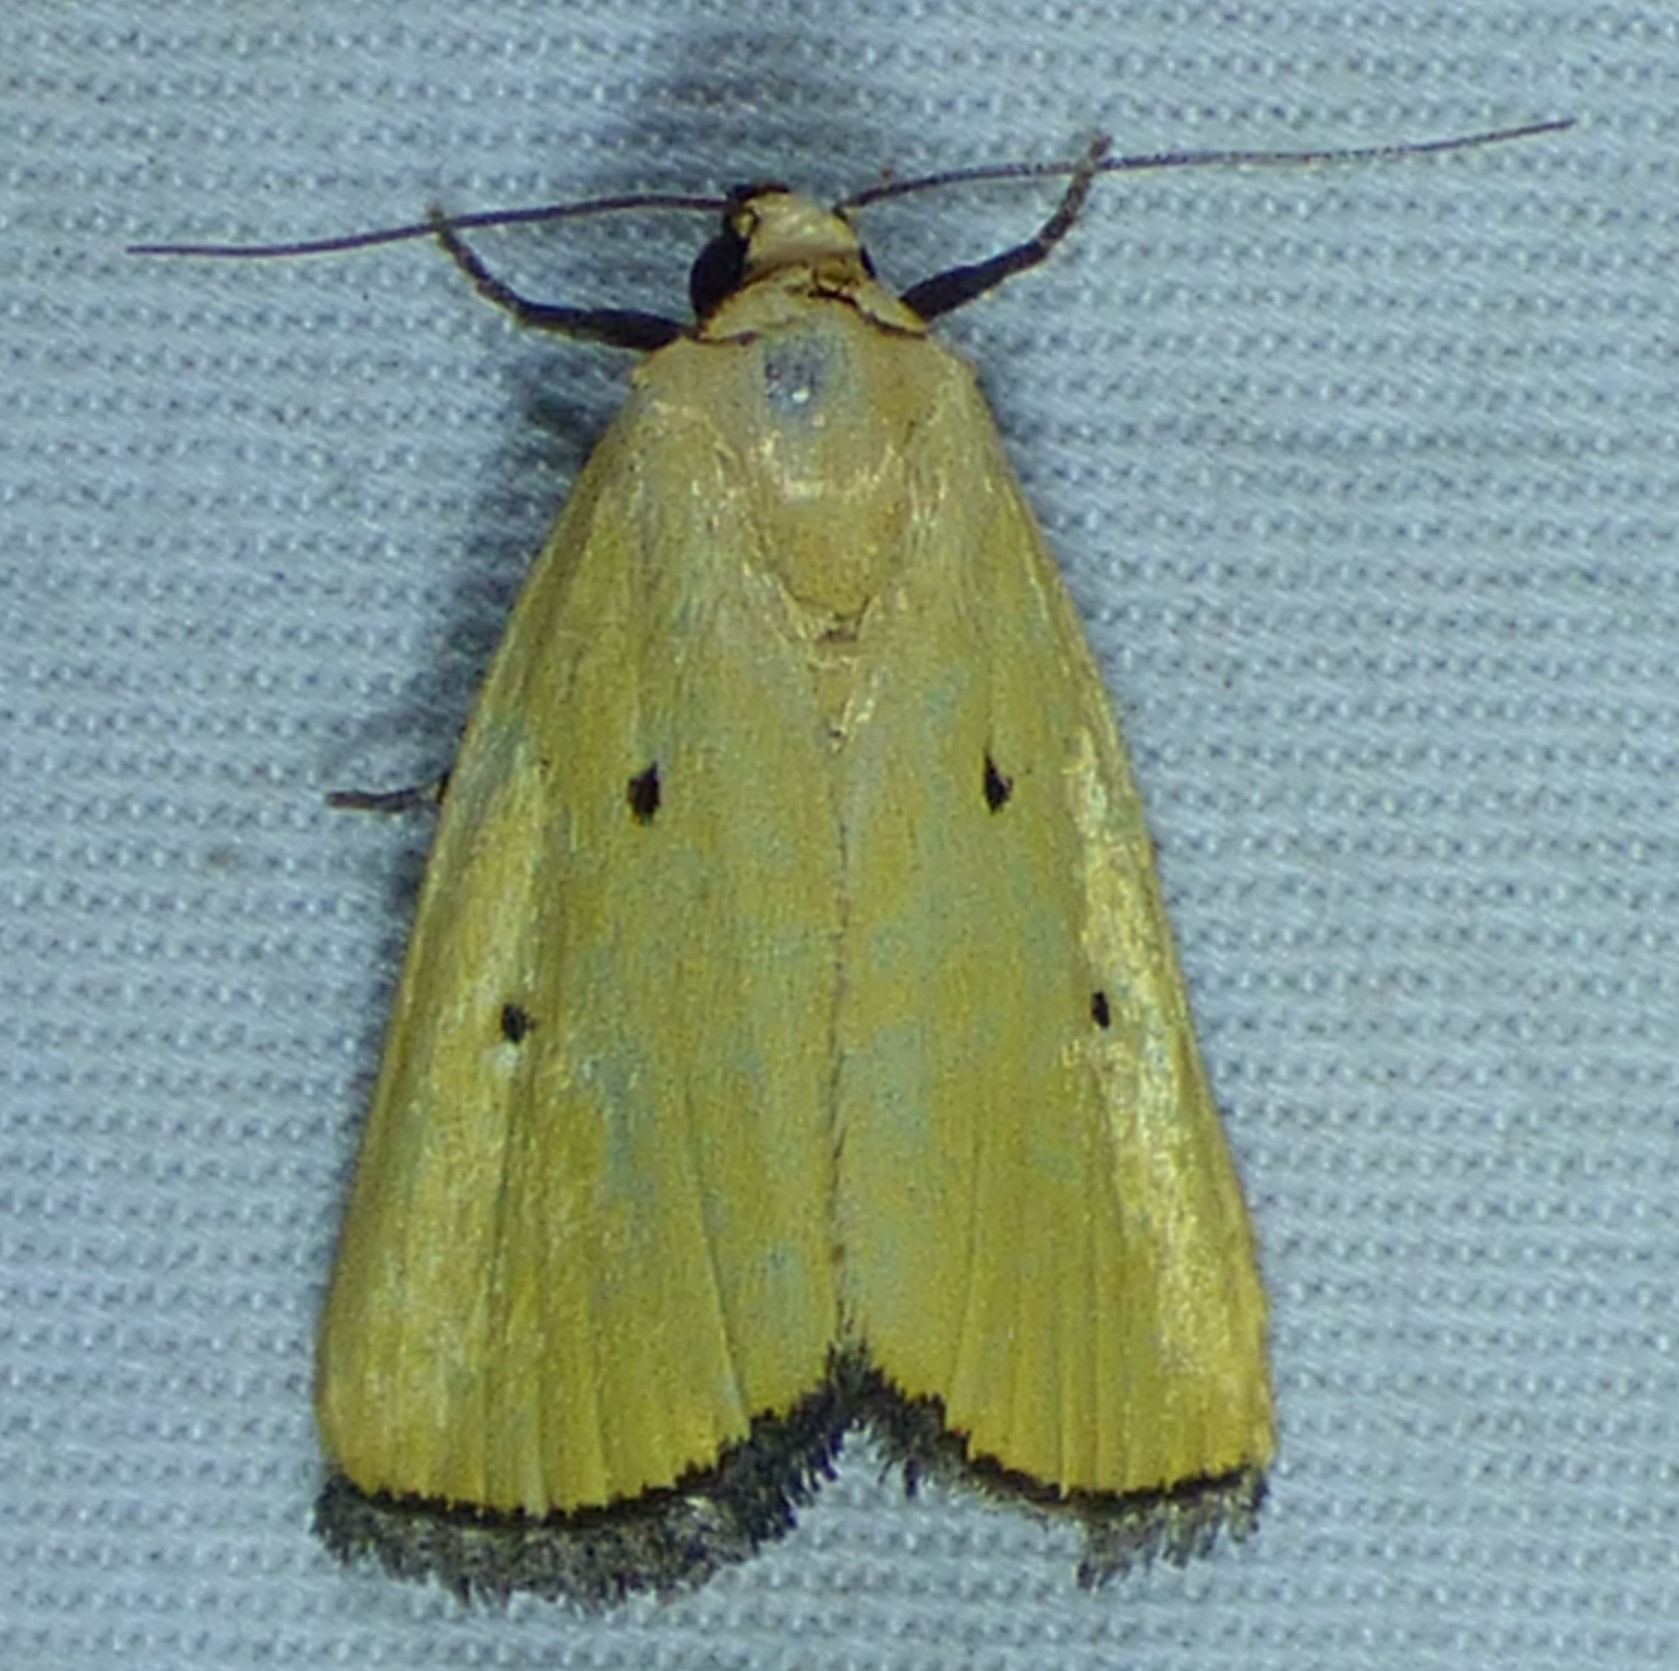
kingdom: Animalia
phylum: Arthropoda
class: Insecta
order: Lepidoptera
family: Noctuidae
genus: Marimatha
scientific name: Marimatha nigrofimbria
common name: Black-bordered lemon moth
